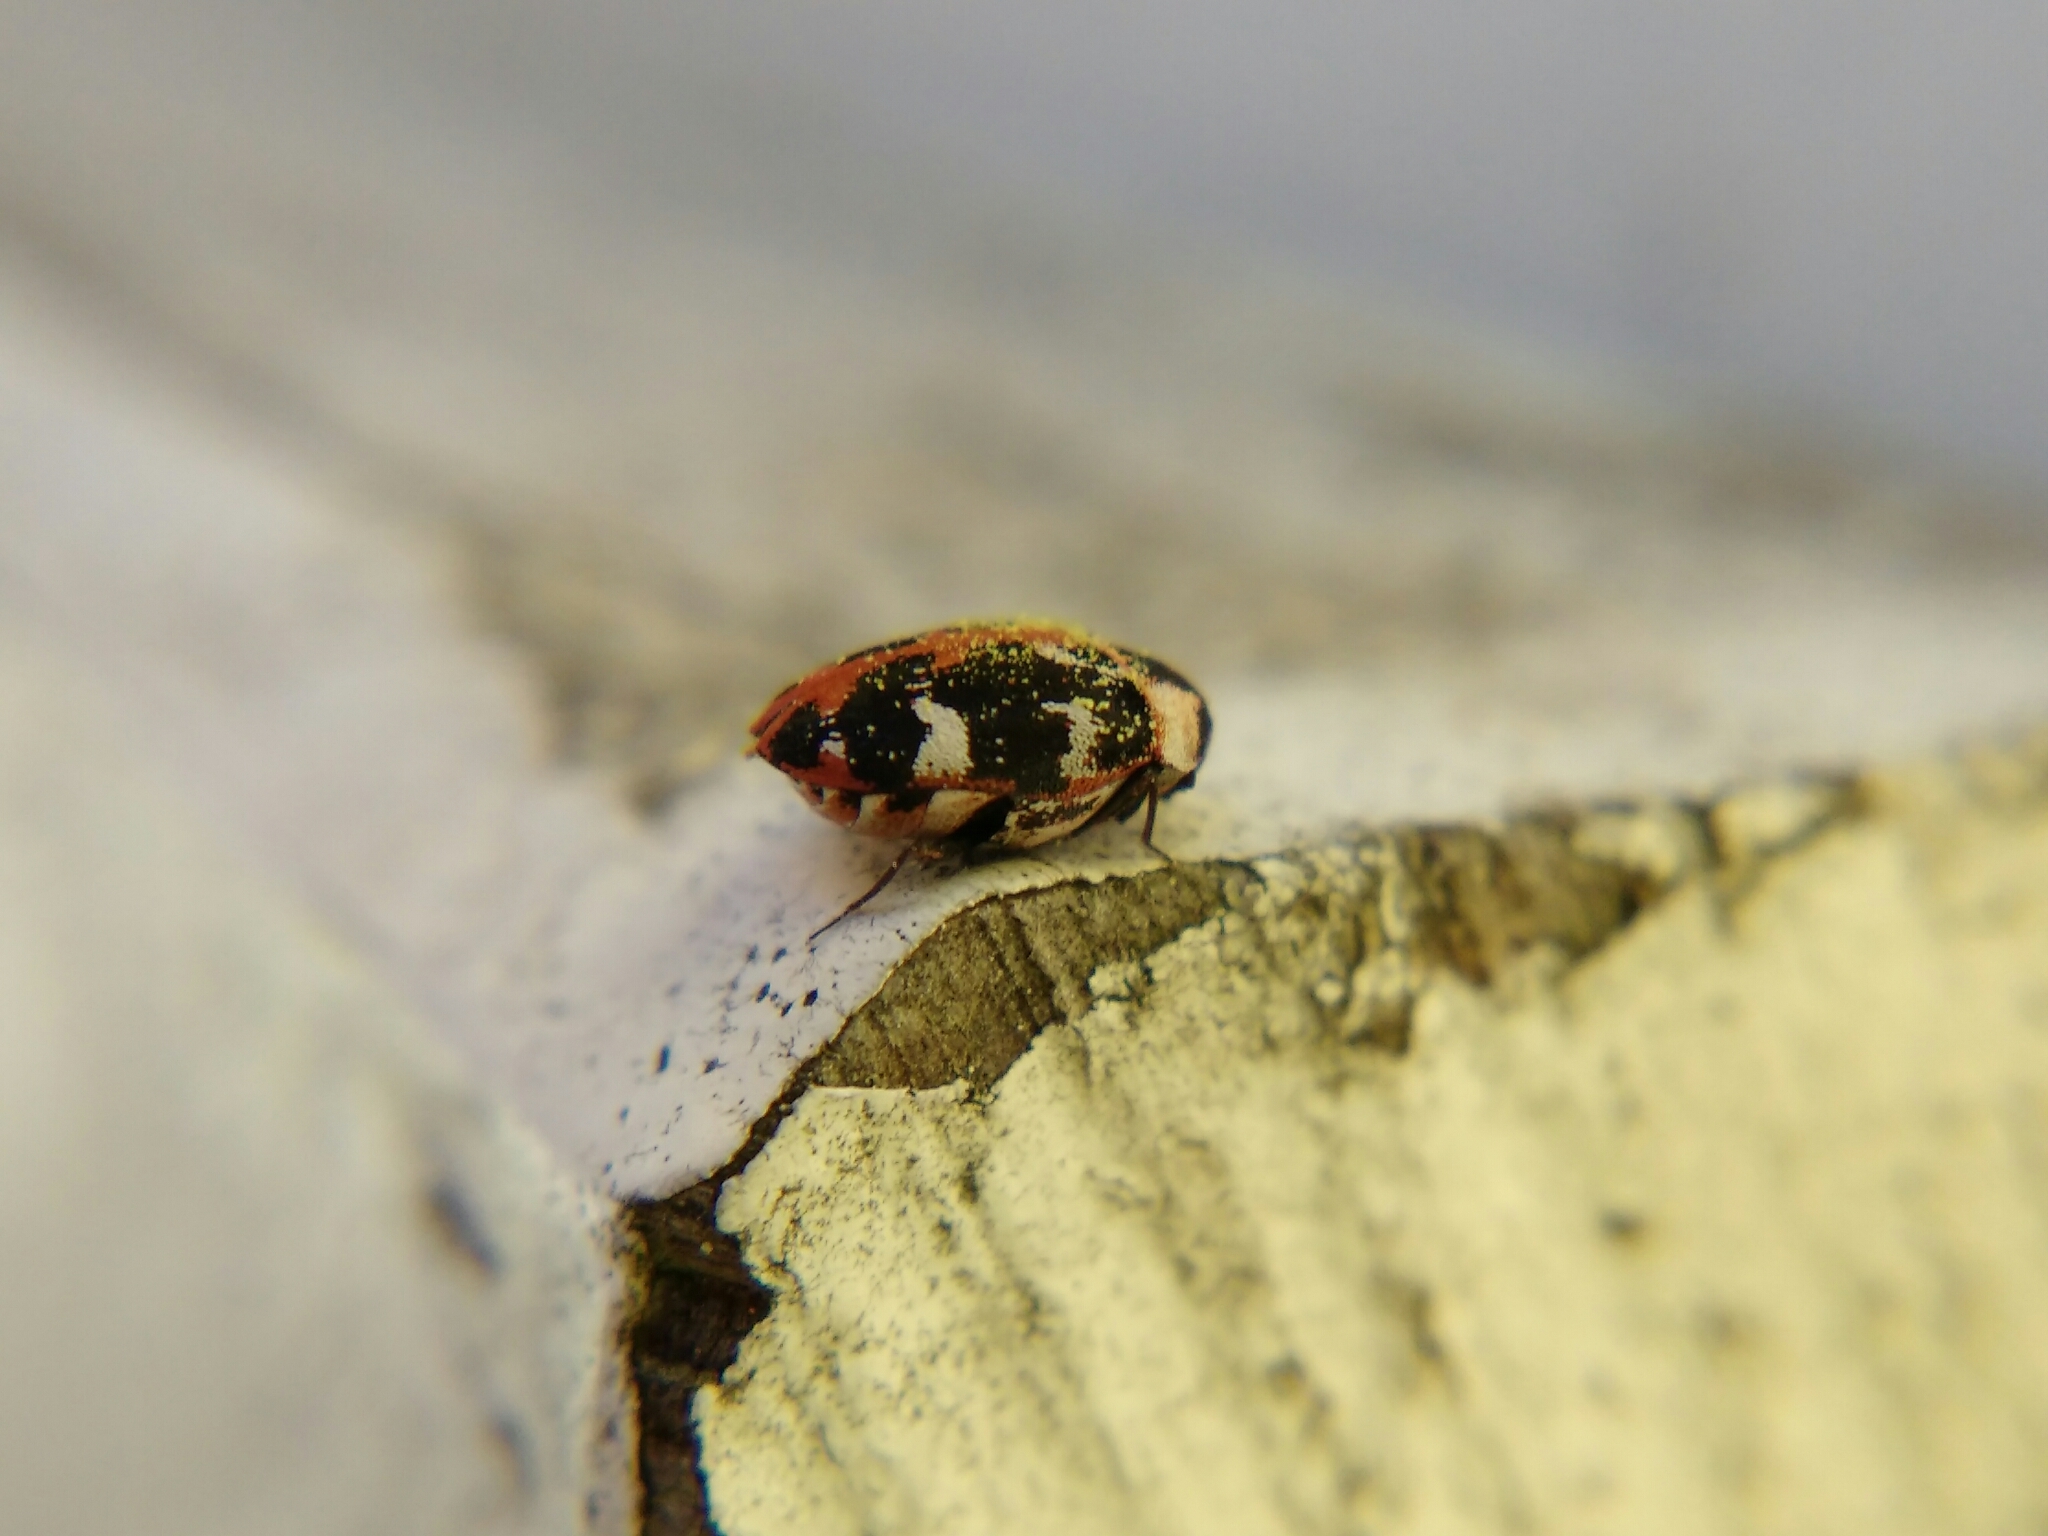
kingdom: Animalia
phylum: Arthropoda
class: Insecta
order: Coleoptera
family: Dermestidae
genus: Anthrenus
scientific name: Anthrenus scrophulariae
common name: Buffalo carpet beetle
